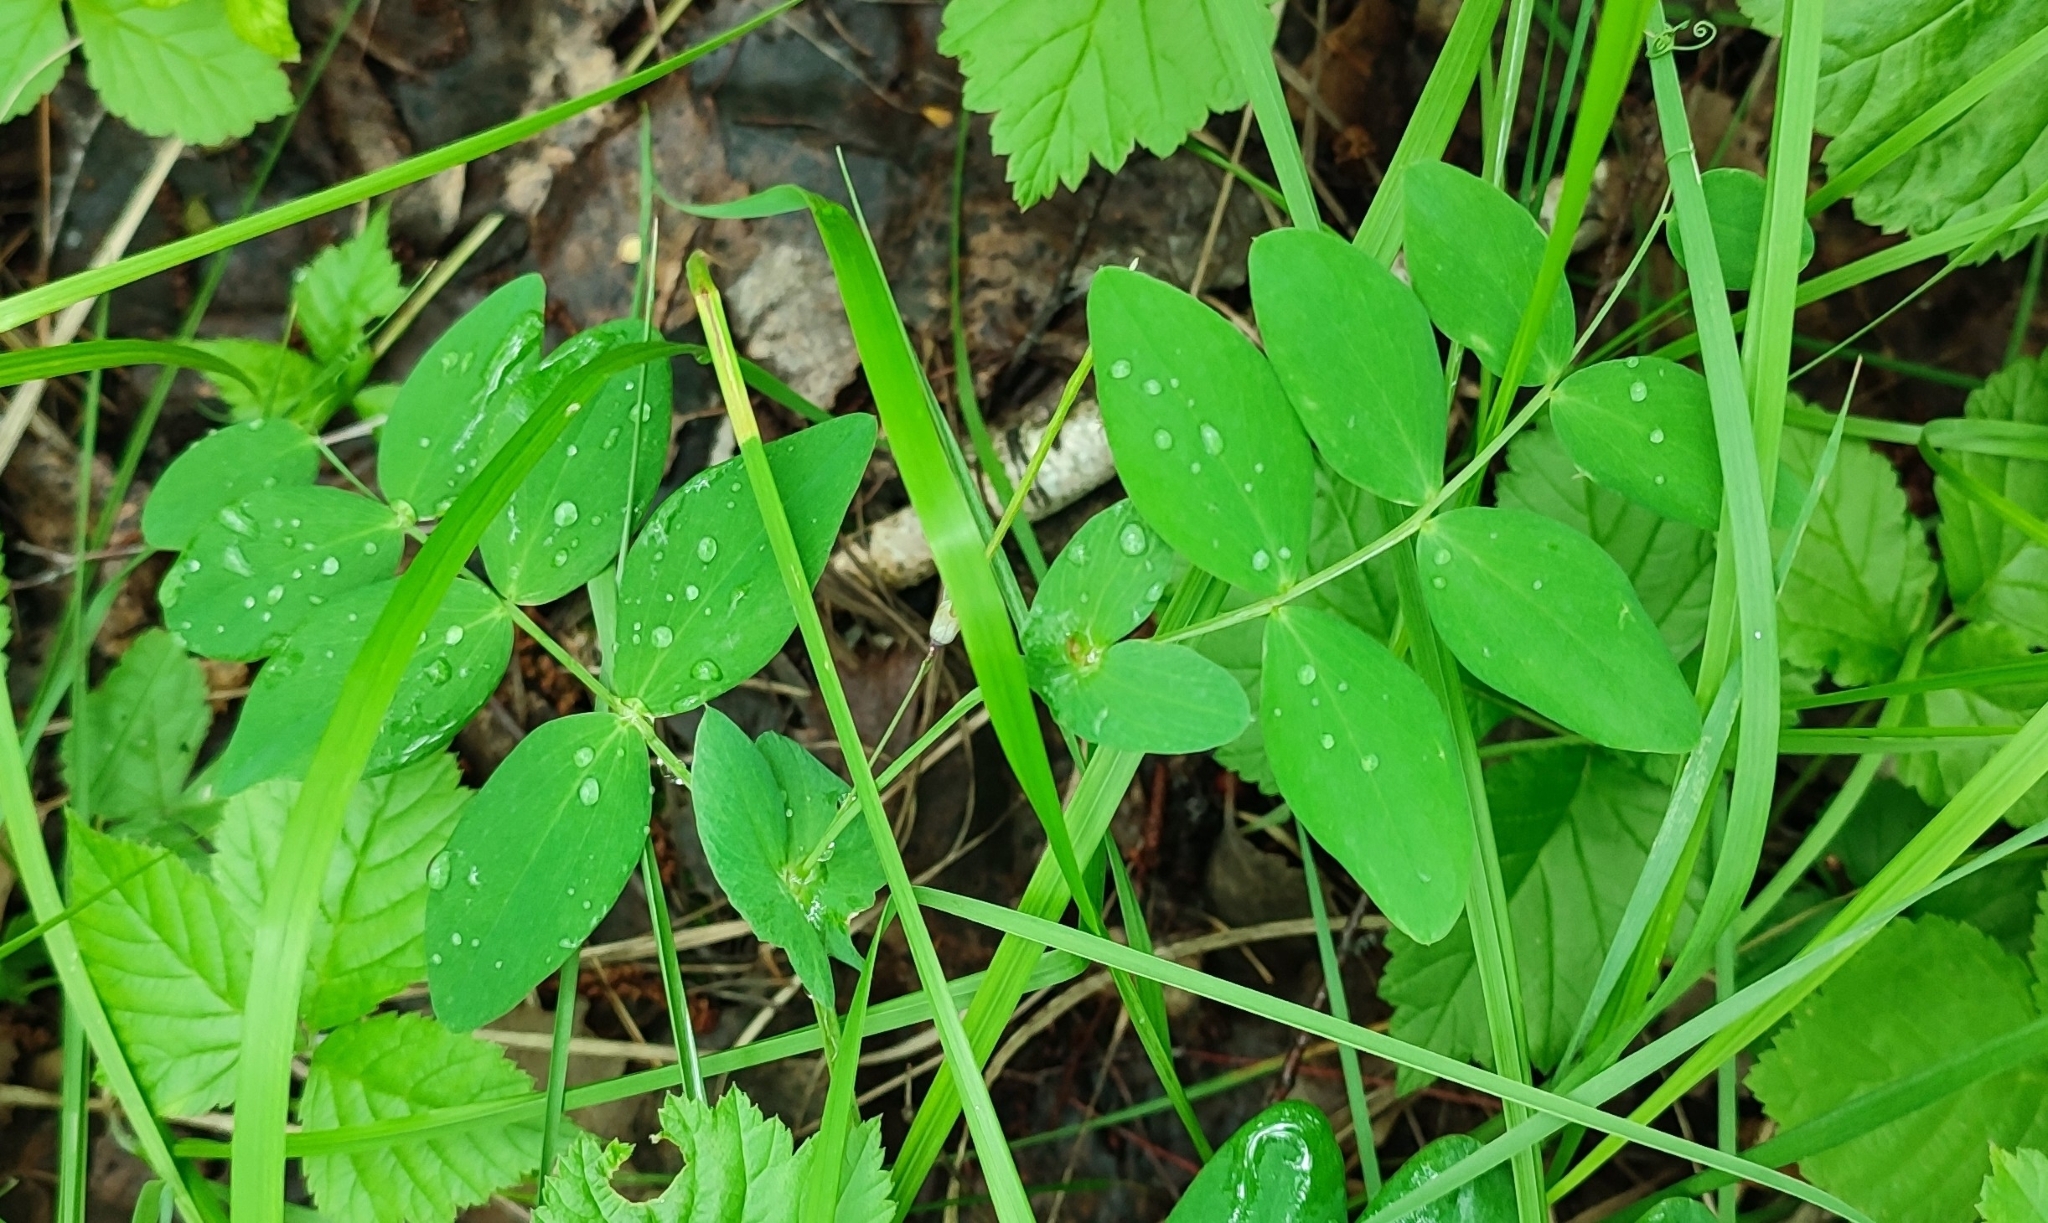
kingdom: Plantae
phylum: Tracheophyta
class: Magnoliopsida
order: Fabales
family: Fabaceae
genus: Lathyrus
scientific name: Lathyrus pisiformis
